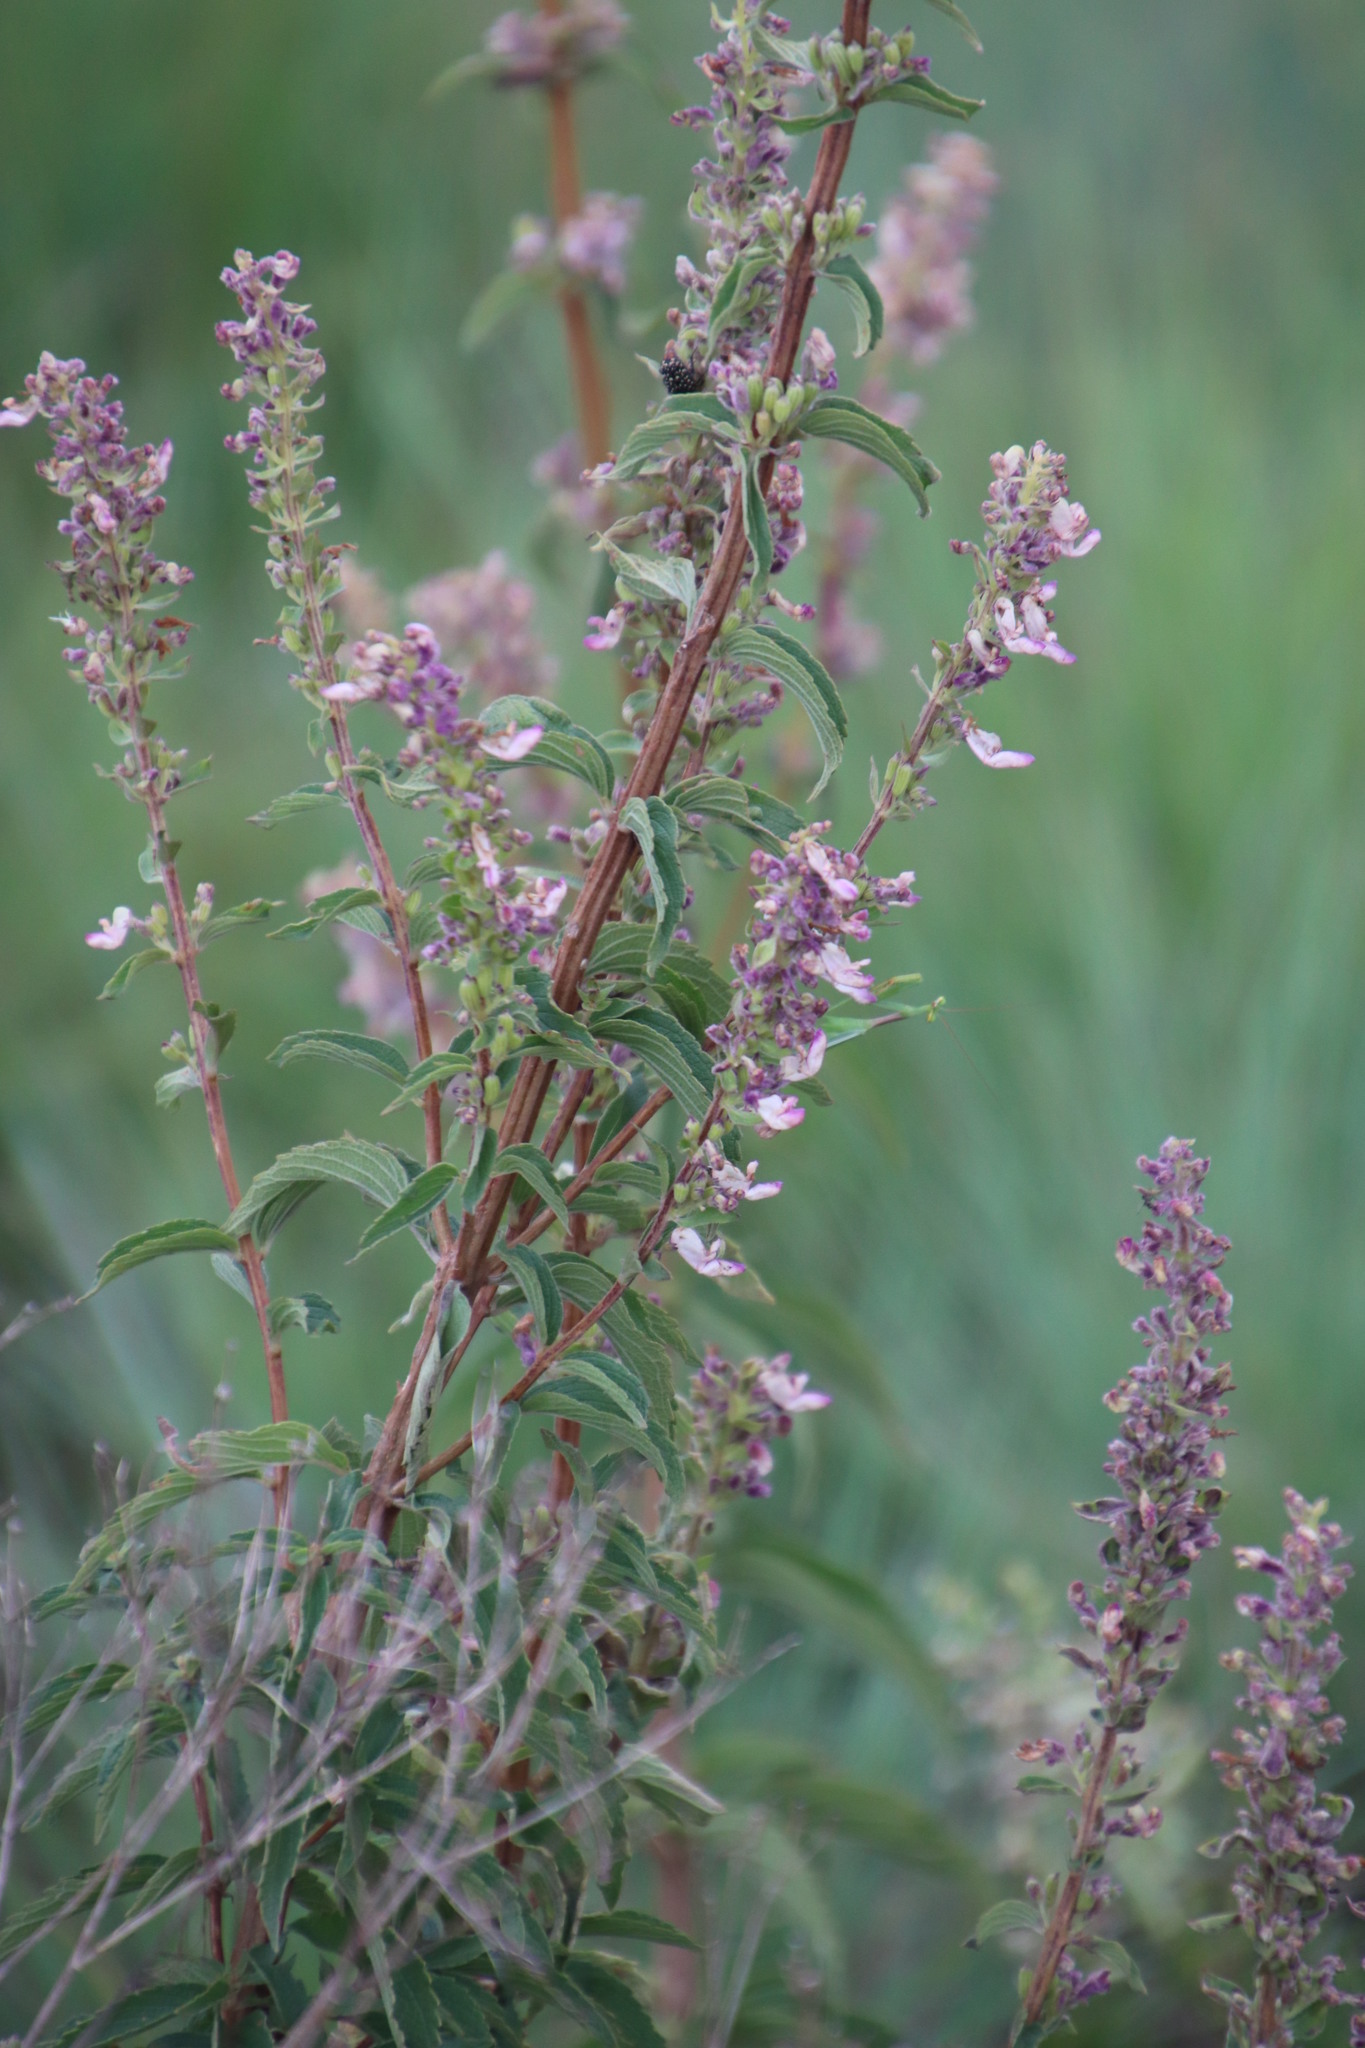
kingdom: Plantae
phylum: Tracheophyta
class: Magnoliopsida
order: Lamiales
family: Lamiaceae
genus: Coleus
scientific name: Coleus calycinus
